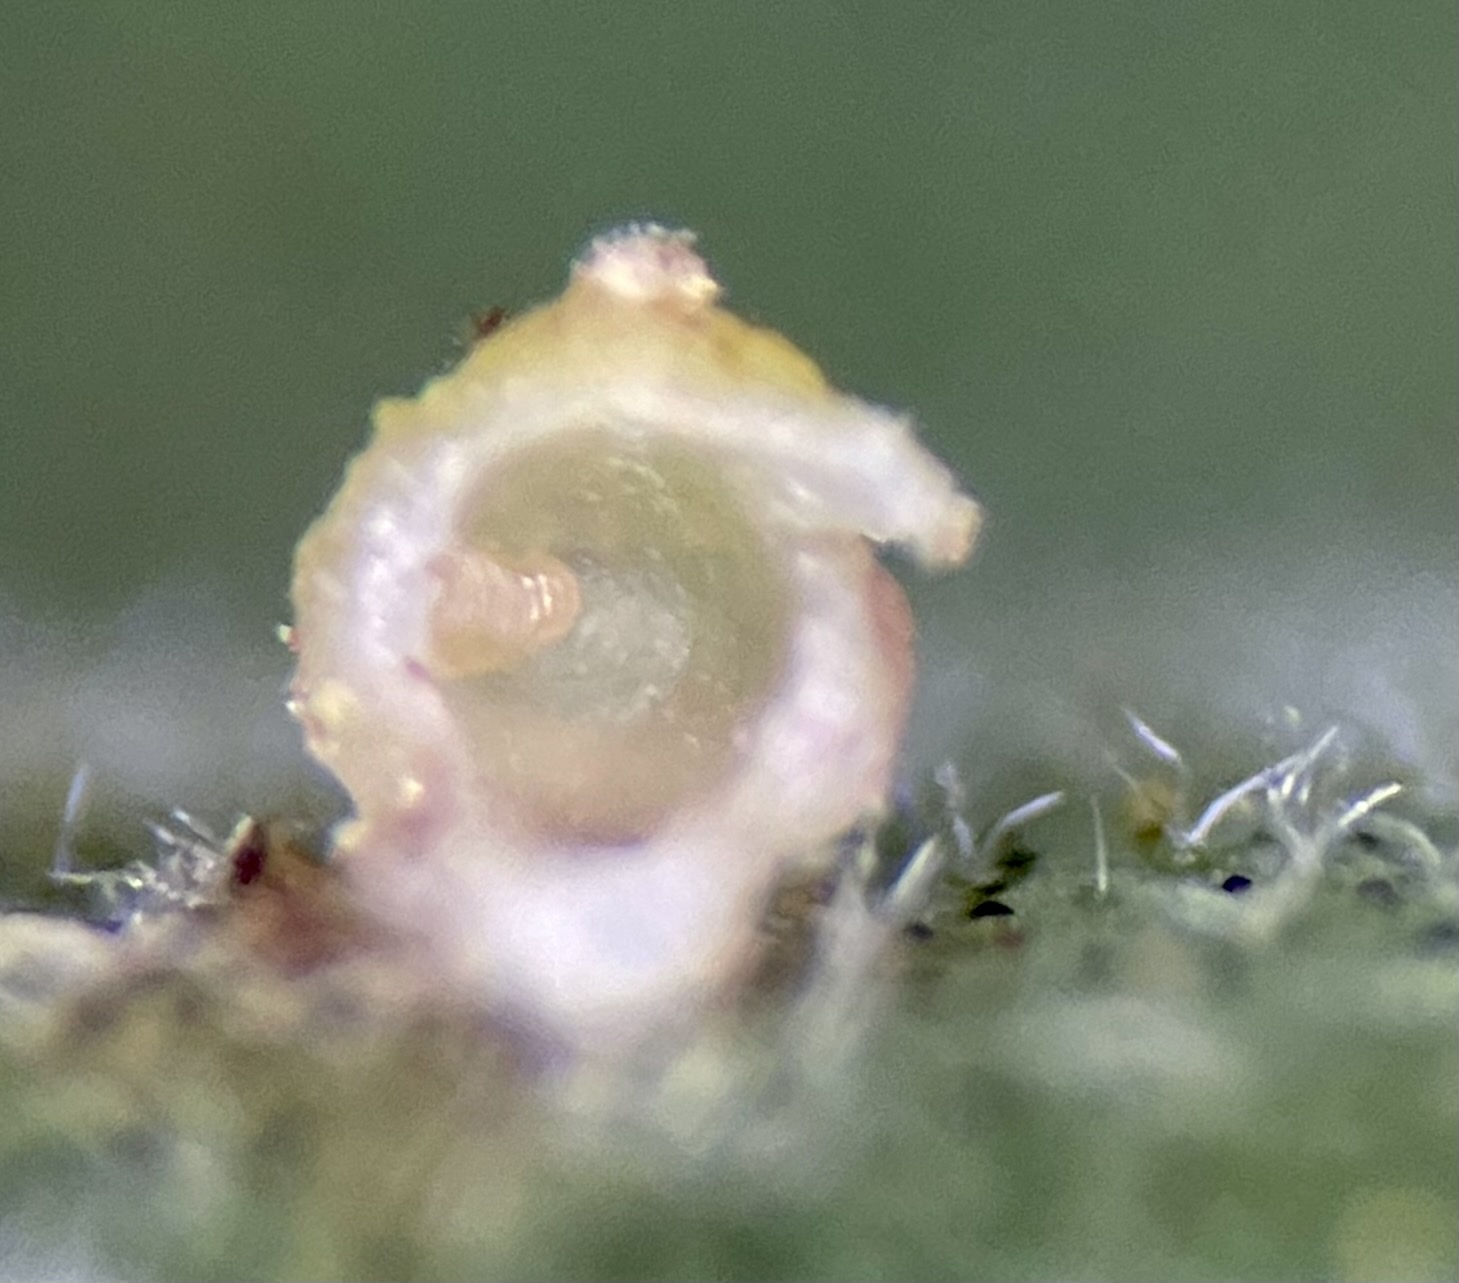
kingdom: Animalia
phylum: Arthropoda
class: Insecta
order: Diptera
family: Cecidomyiidae
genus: Caryomyia
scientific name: Caryomyia tuberidolium
